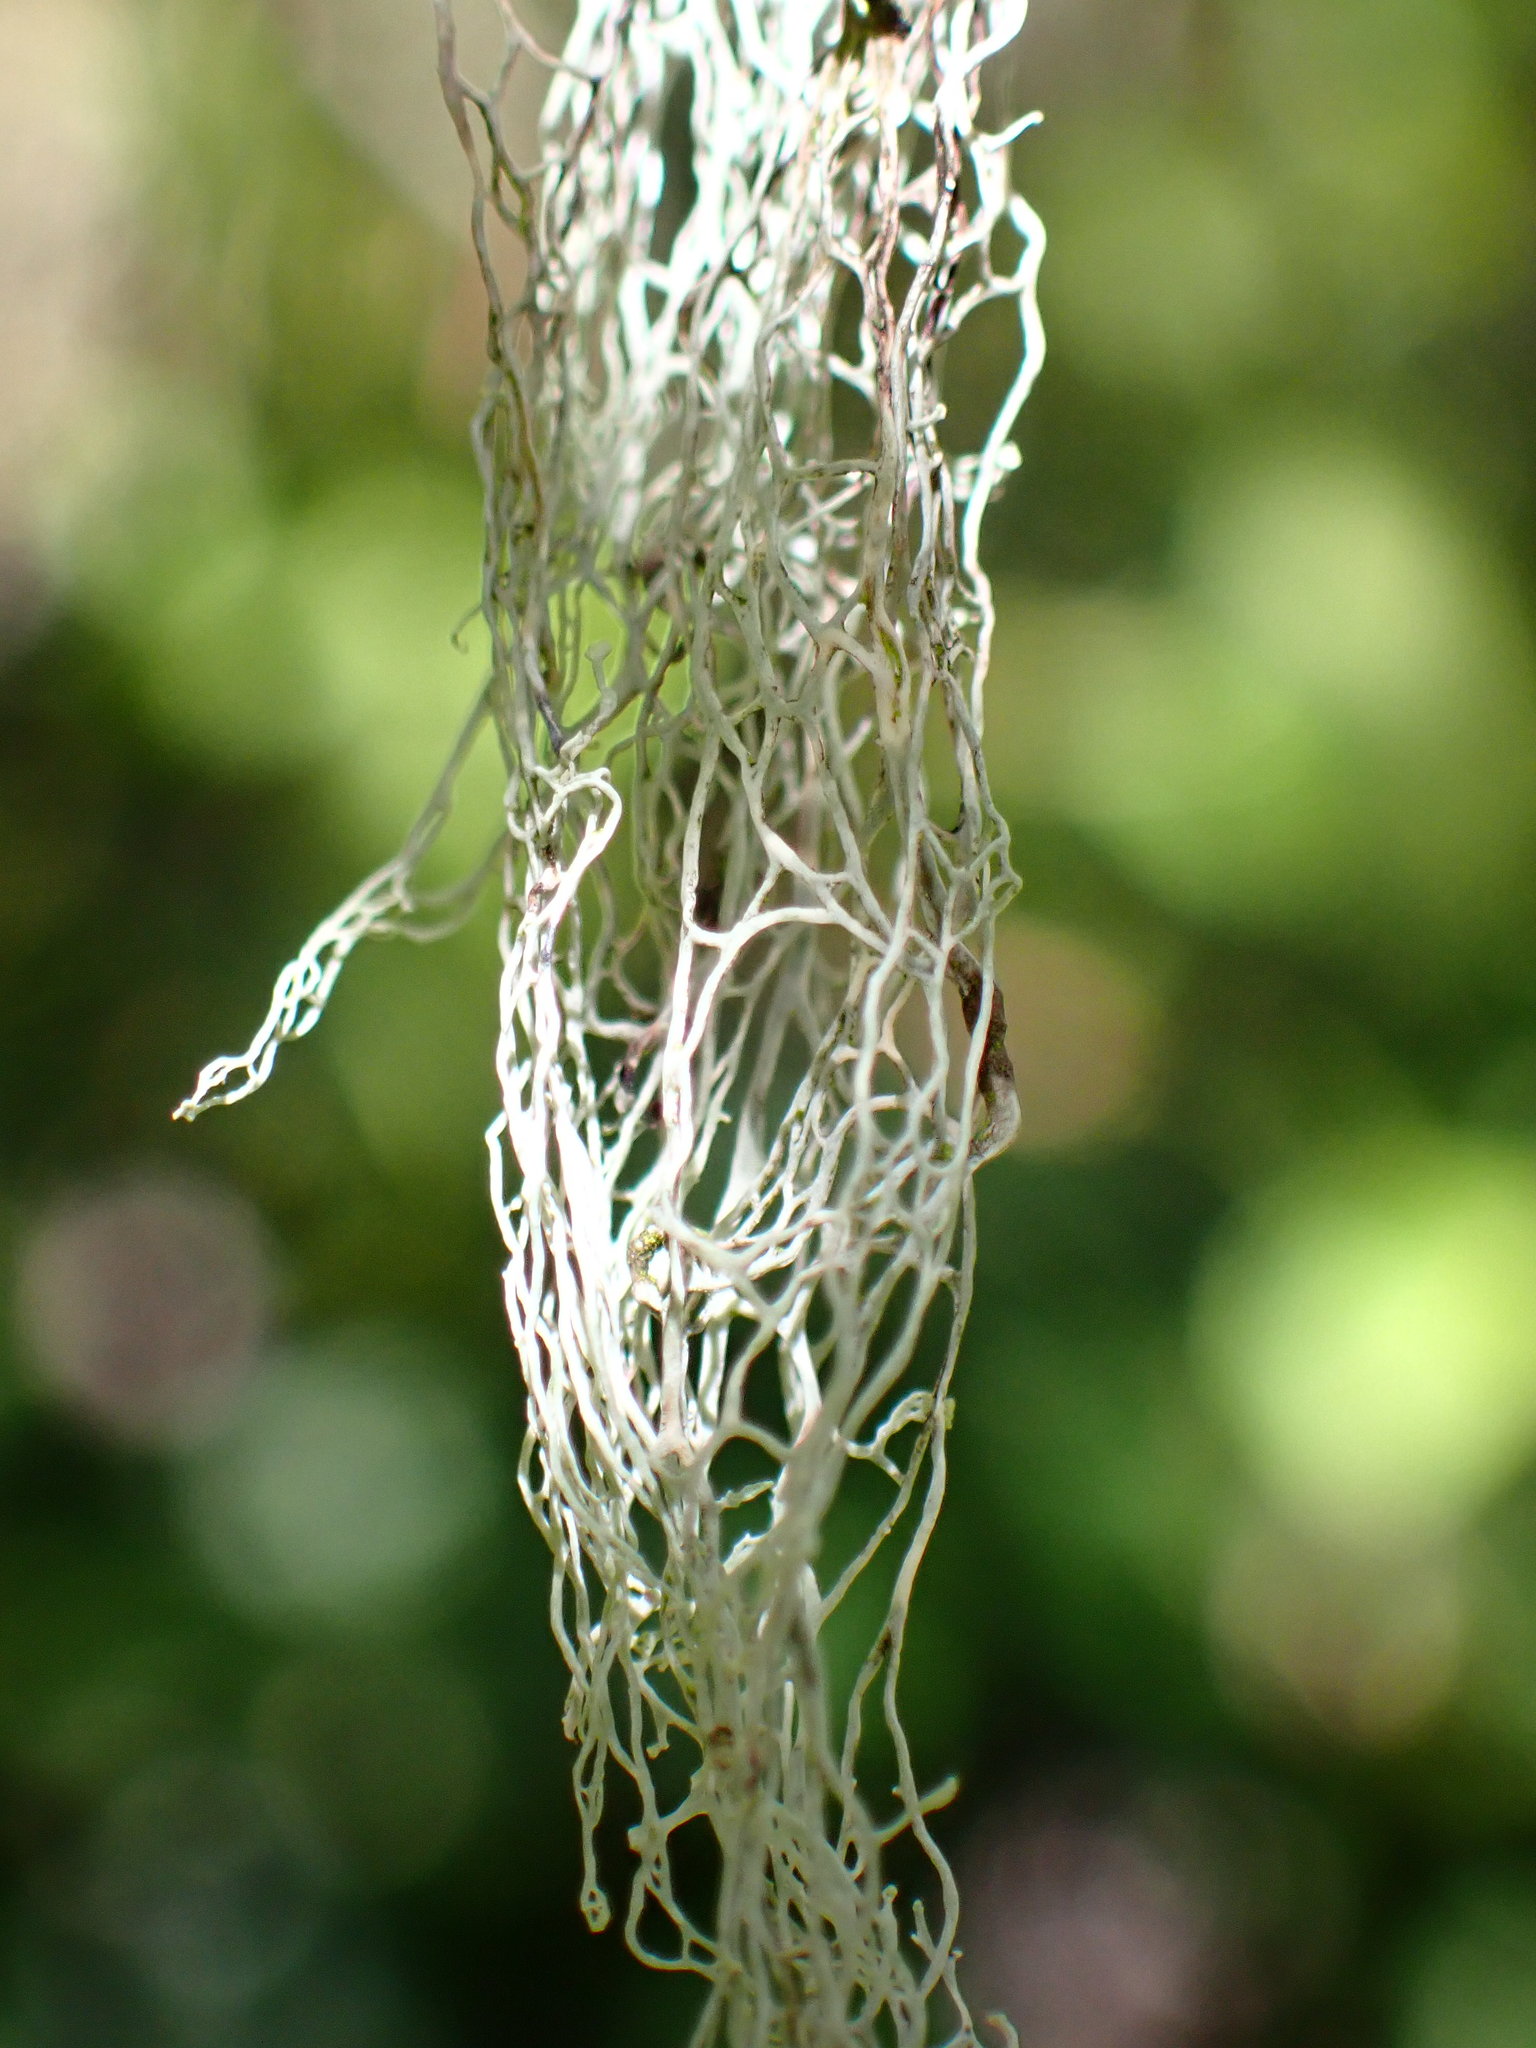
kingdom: Fungi
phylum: Ascomycota
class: Lecanoromycetes
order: Lecanorales
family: Ramalinaceae
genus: Ramalina
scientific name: Ramalina menziesii
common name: Lace lichen
